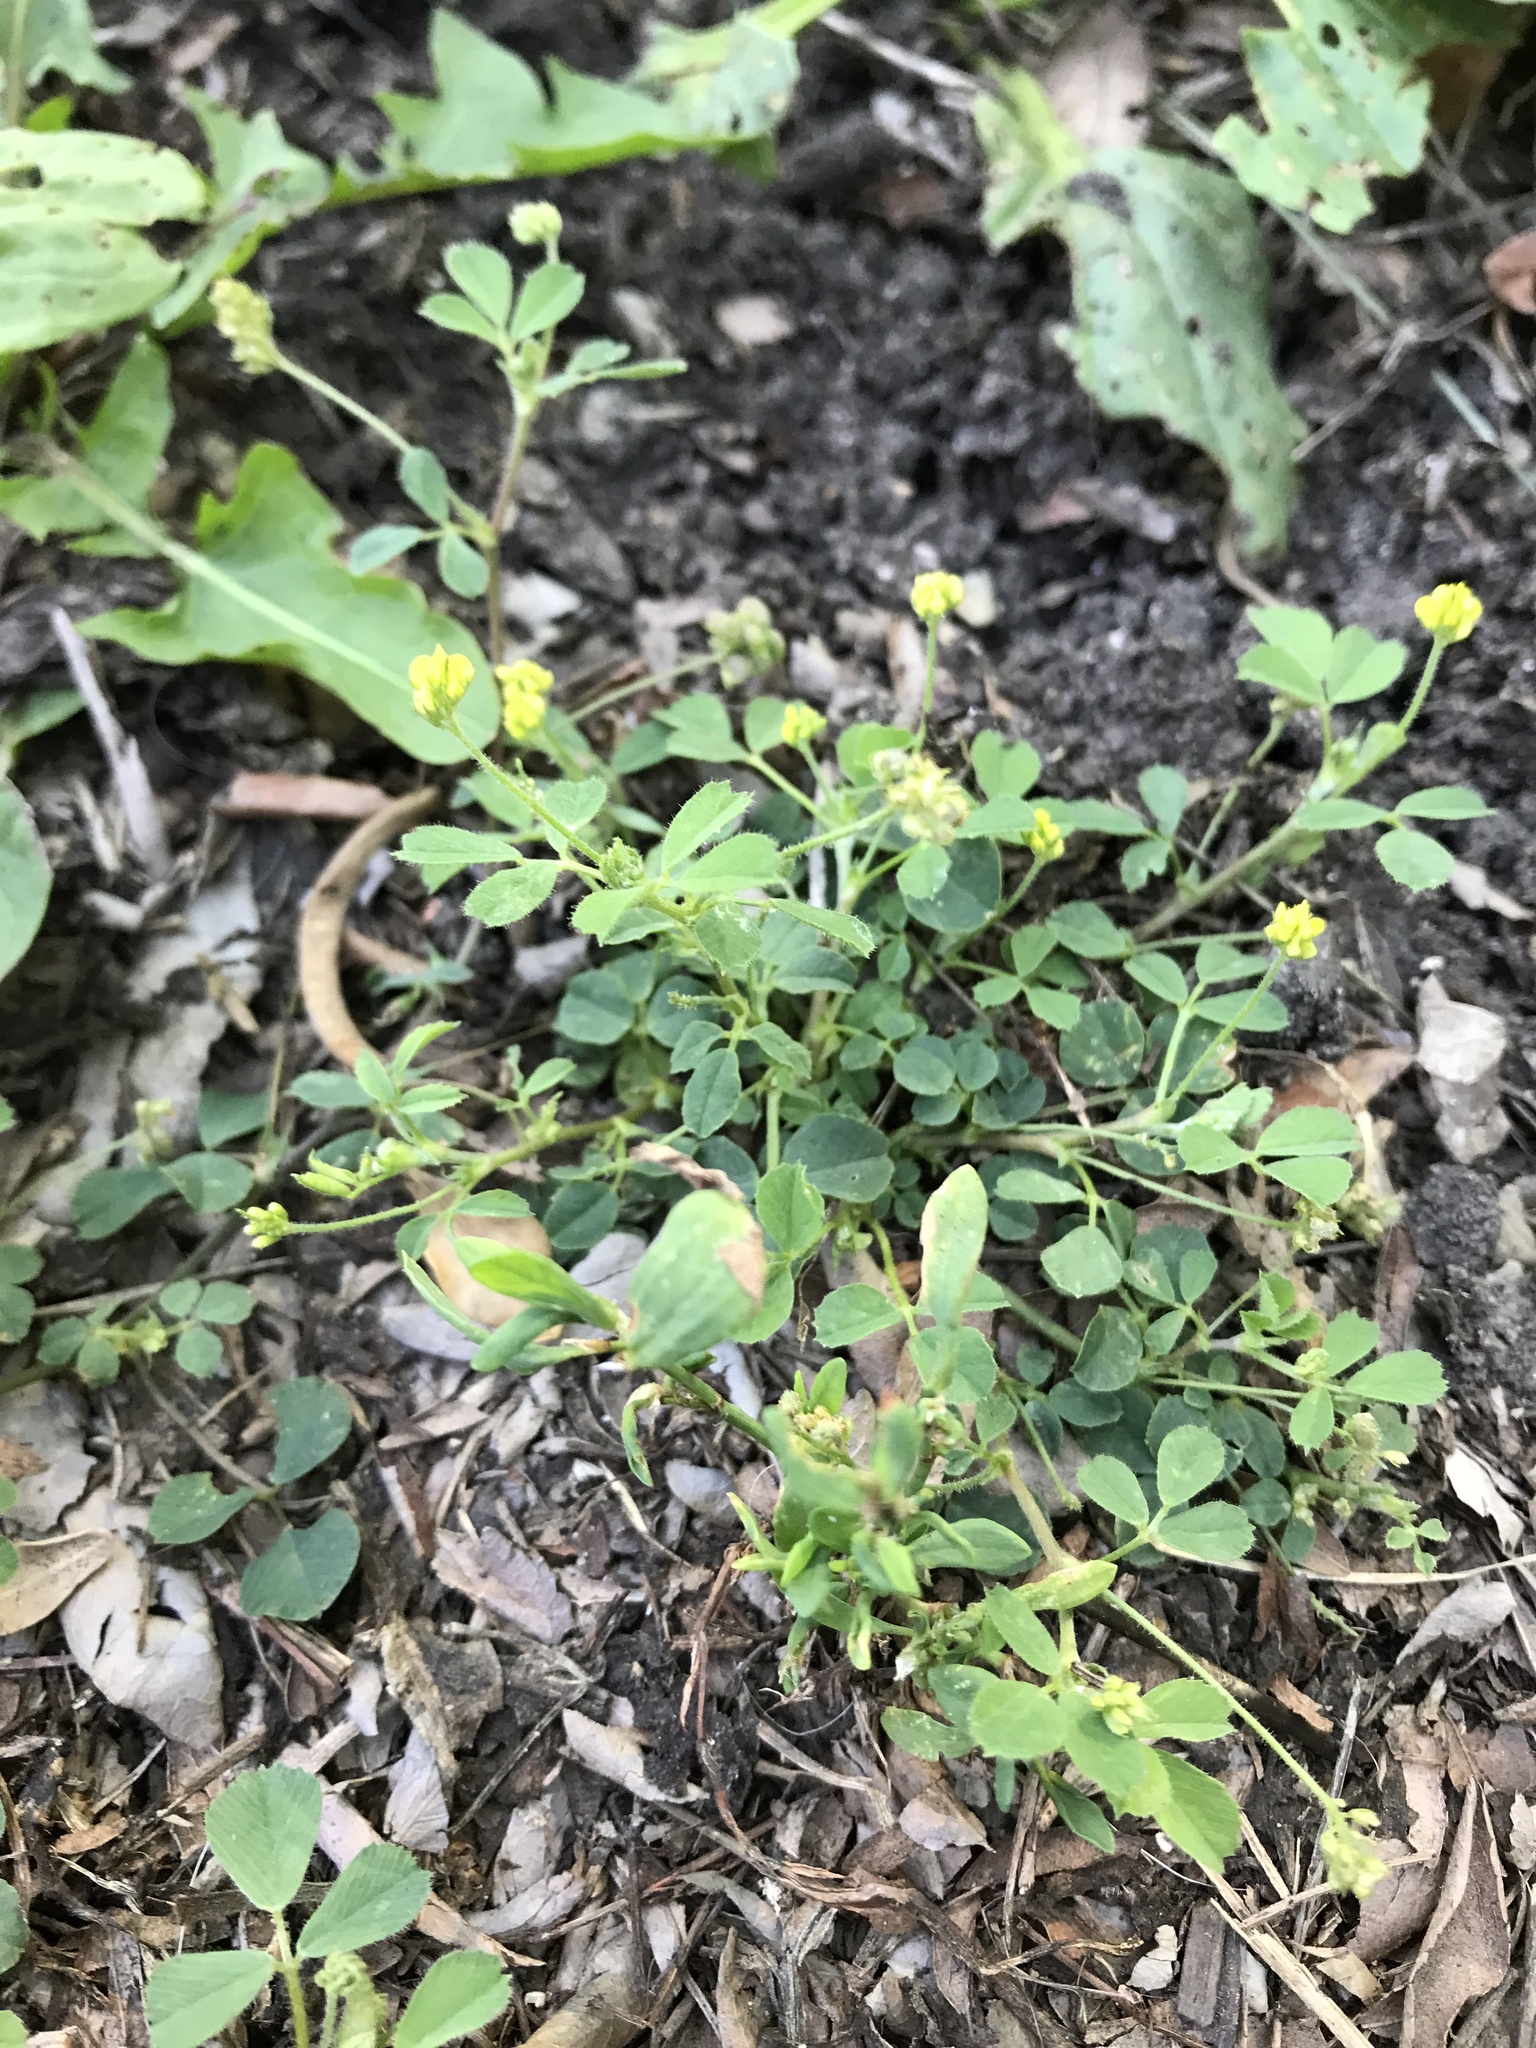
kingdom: Plantae
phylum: Tracheophyta
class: Magnoliopsida
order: Fabales
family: Fabaceae
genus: Medicago
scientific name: Medicago lupulina
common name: Black medick
